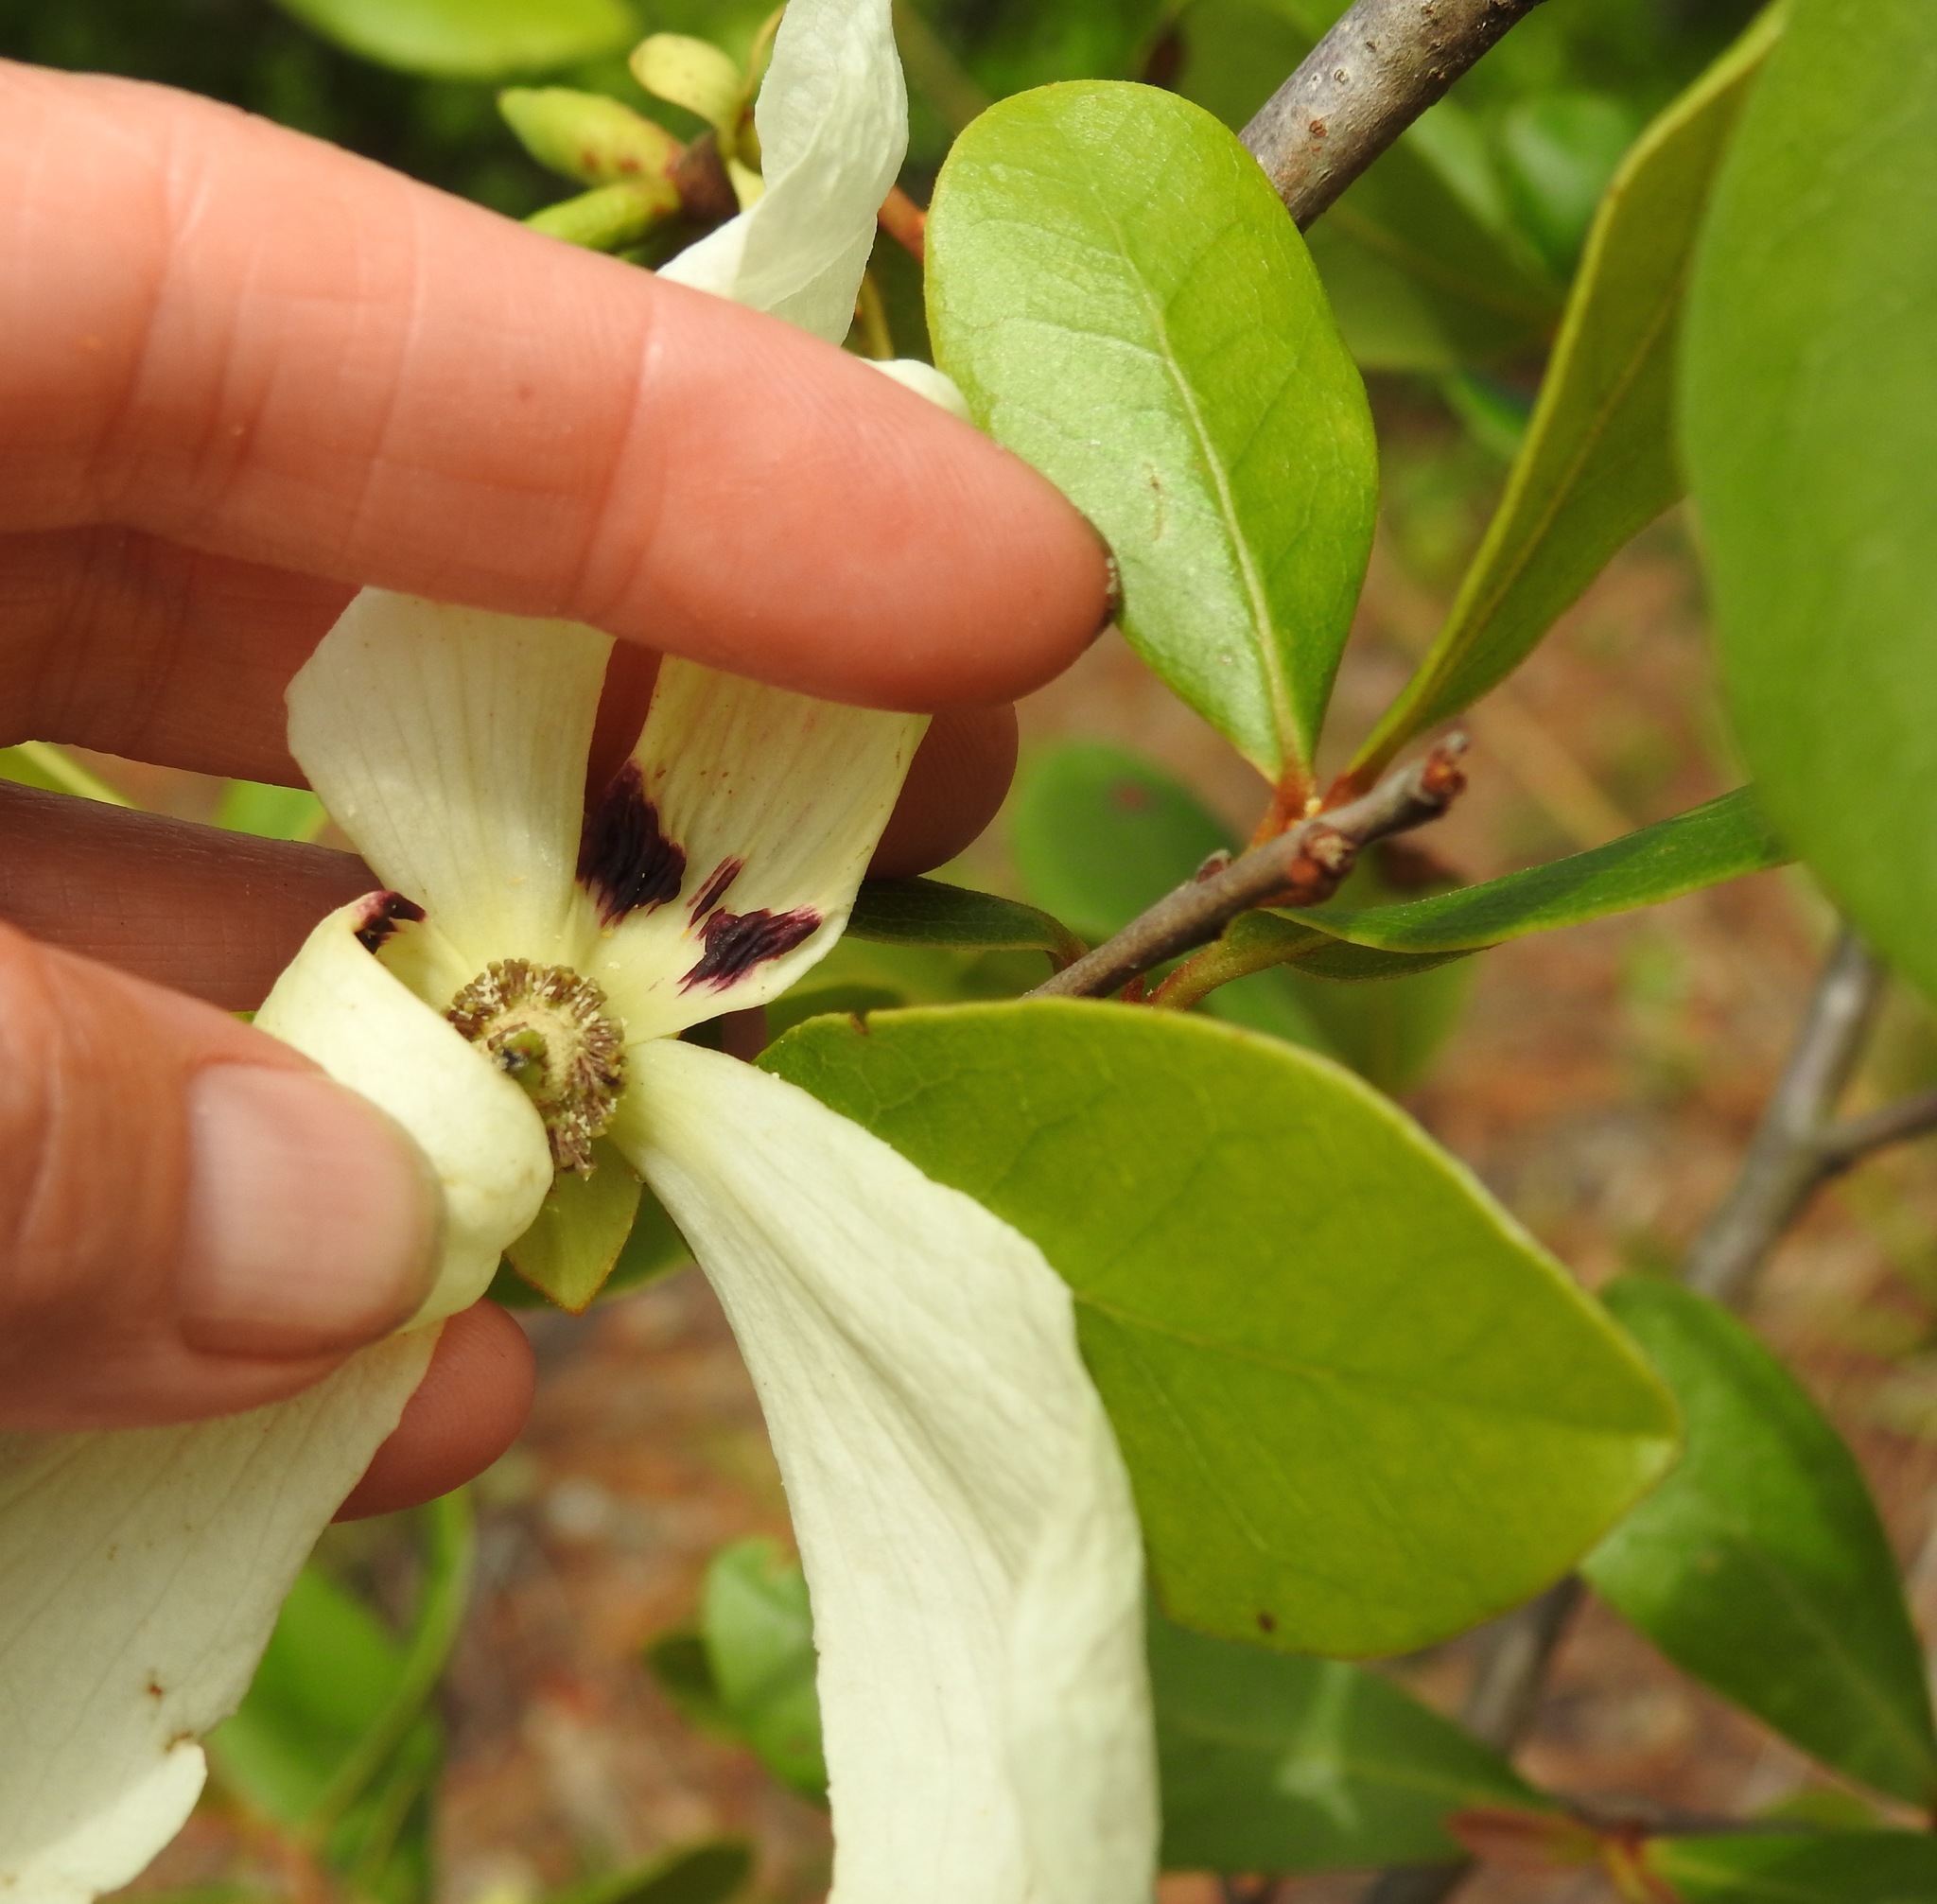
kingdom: Plantae
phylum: Tracheophyta
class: Magnoliopsida
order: Magnoliales
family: Annonaceae
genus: Asimina
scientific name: Asimina obovata
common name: Flag pawpaw
